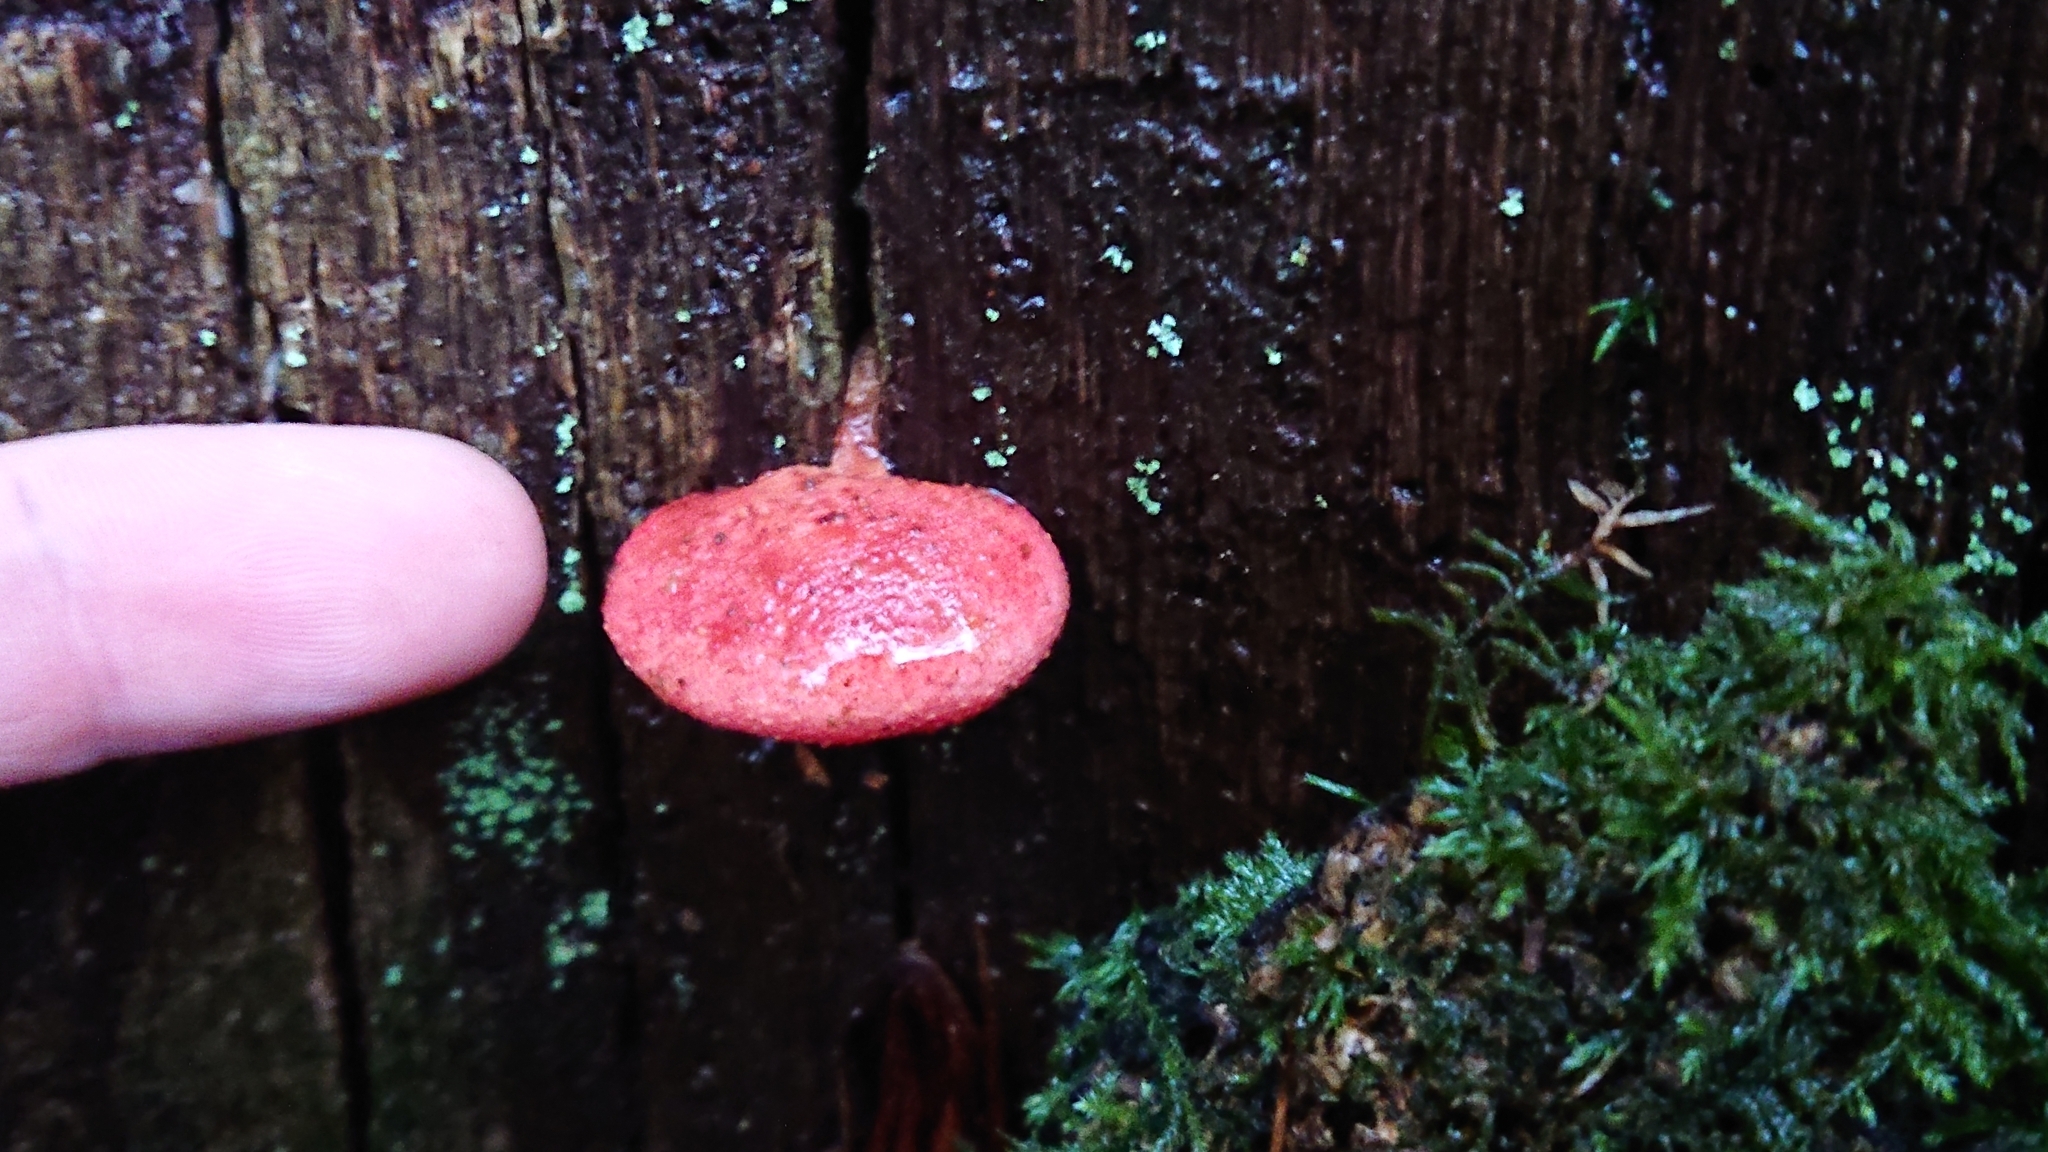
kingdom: Fungi
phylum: Basidiomycota
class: Agaricomycetes
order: Agaricales
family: Fistulinaceae
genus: Fistulina
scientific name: Fistulina hepatica
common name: Beef-steak fungus
